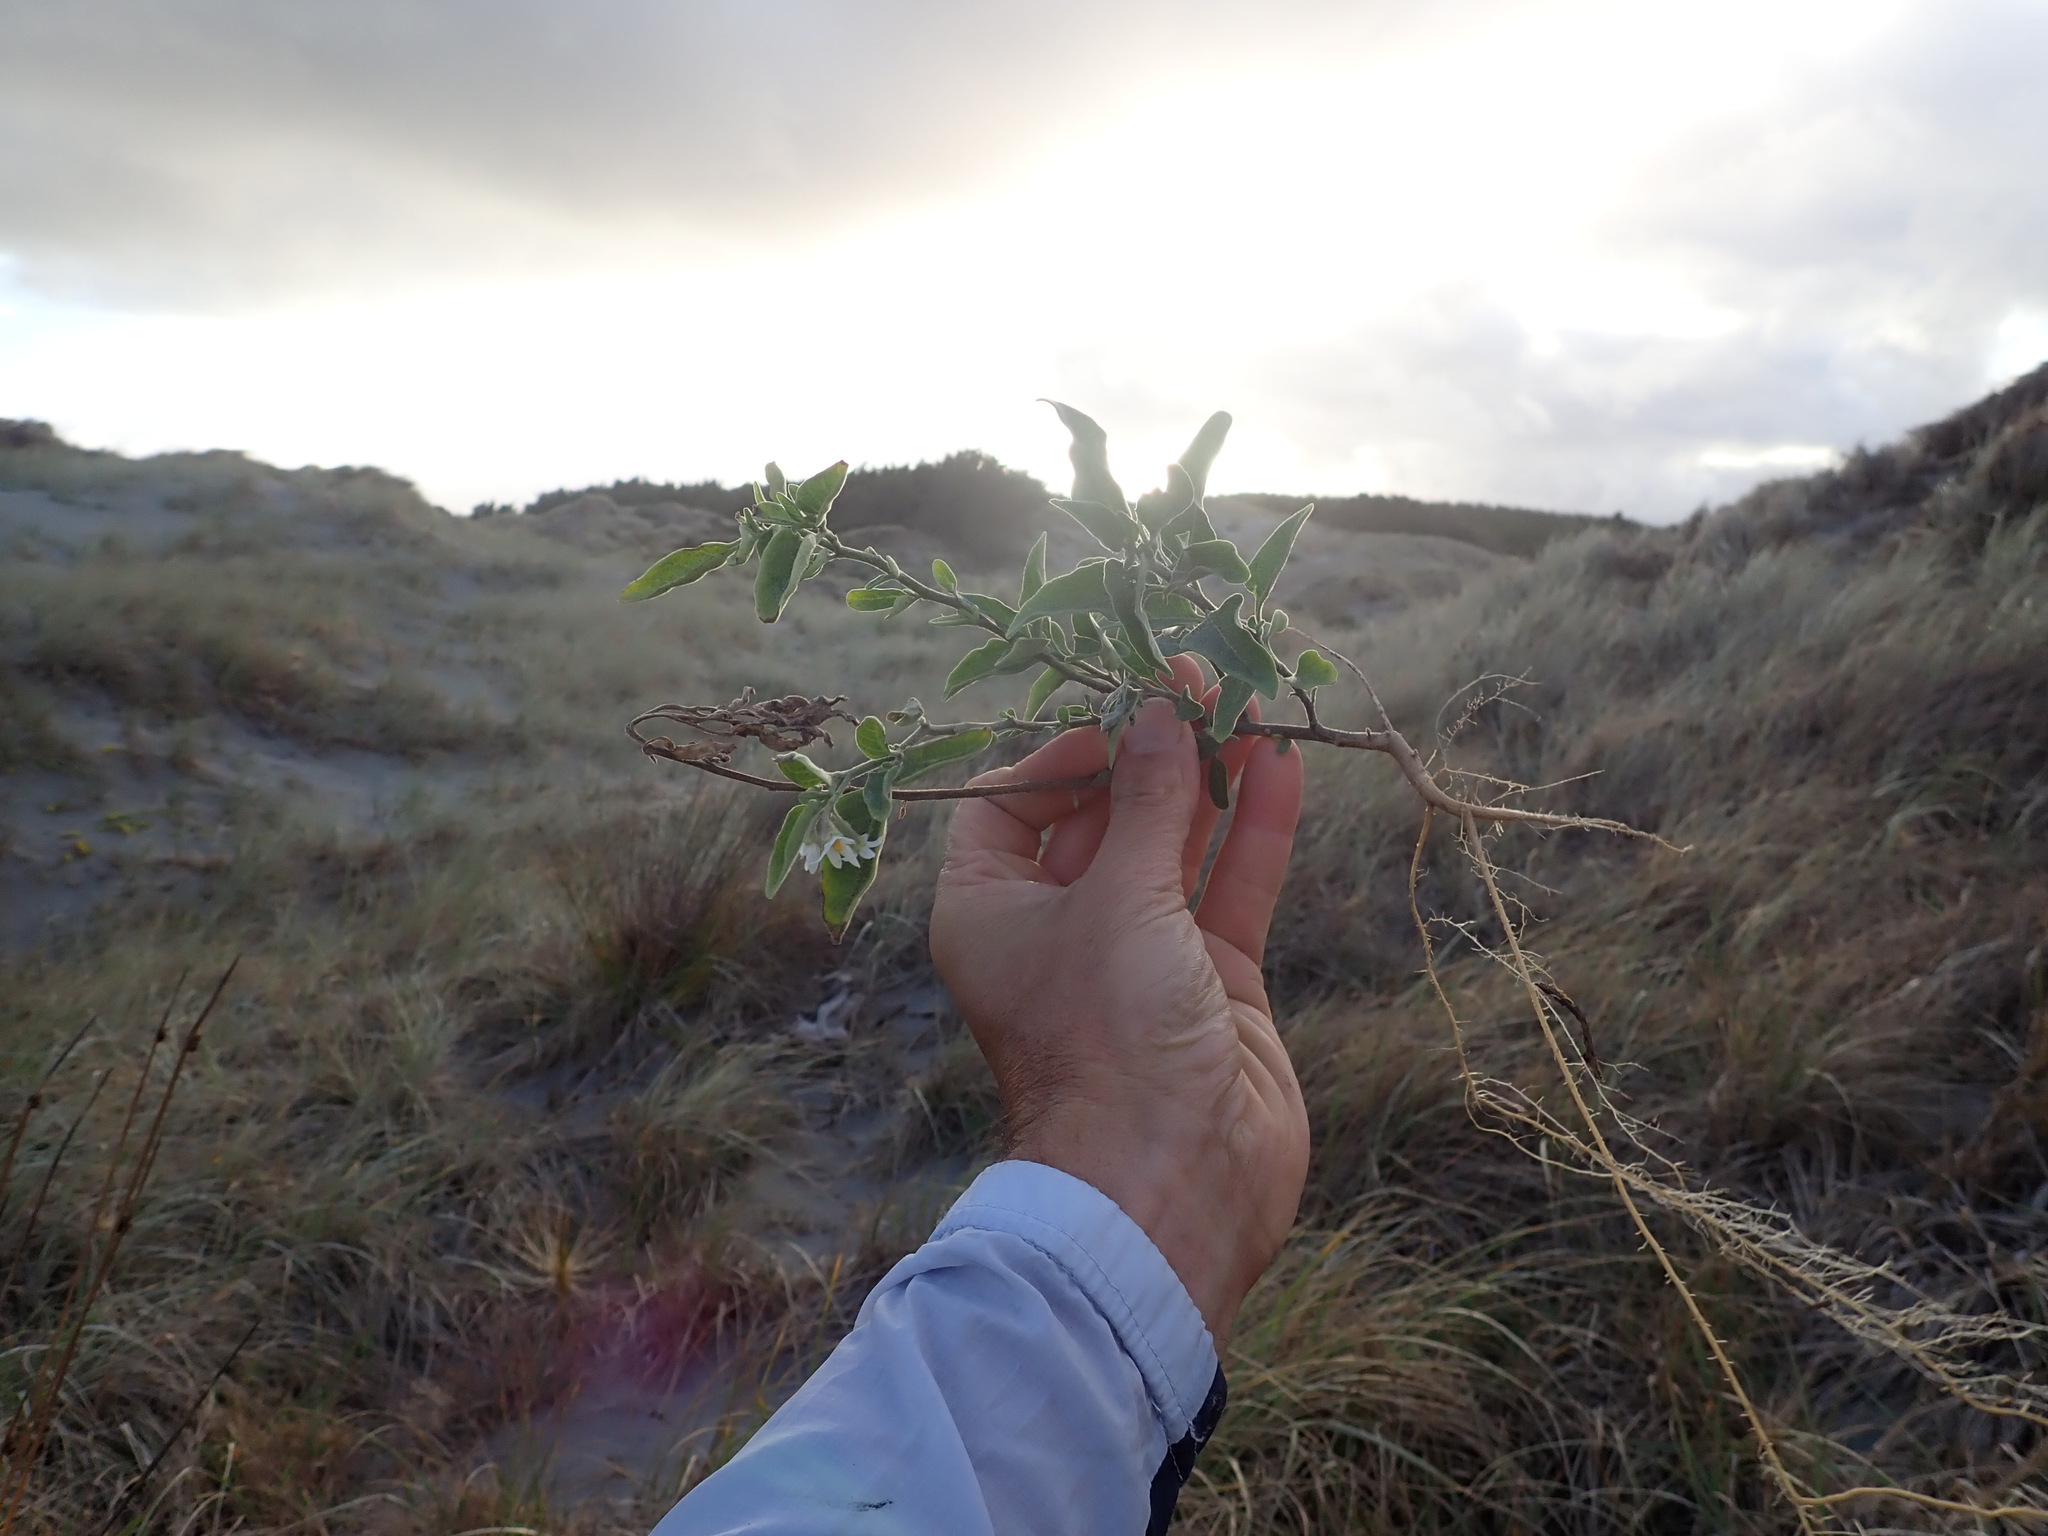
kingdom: Plantae
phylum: Tracheophyta
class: Magnoliopsida
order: Solanales
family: Solanaceae
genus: Solanum
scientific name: Solanum chenopodioides
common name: Tall nightshade
